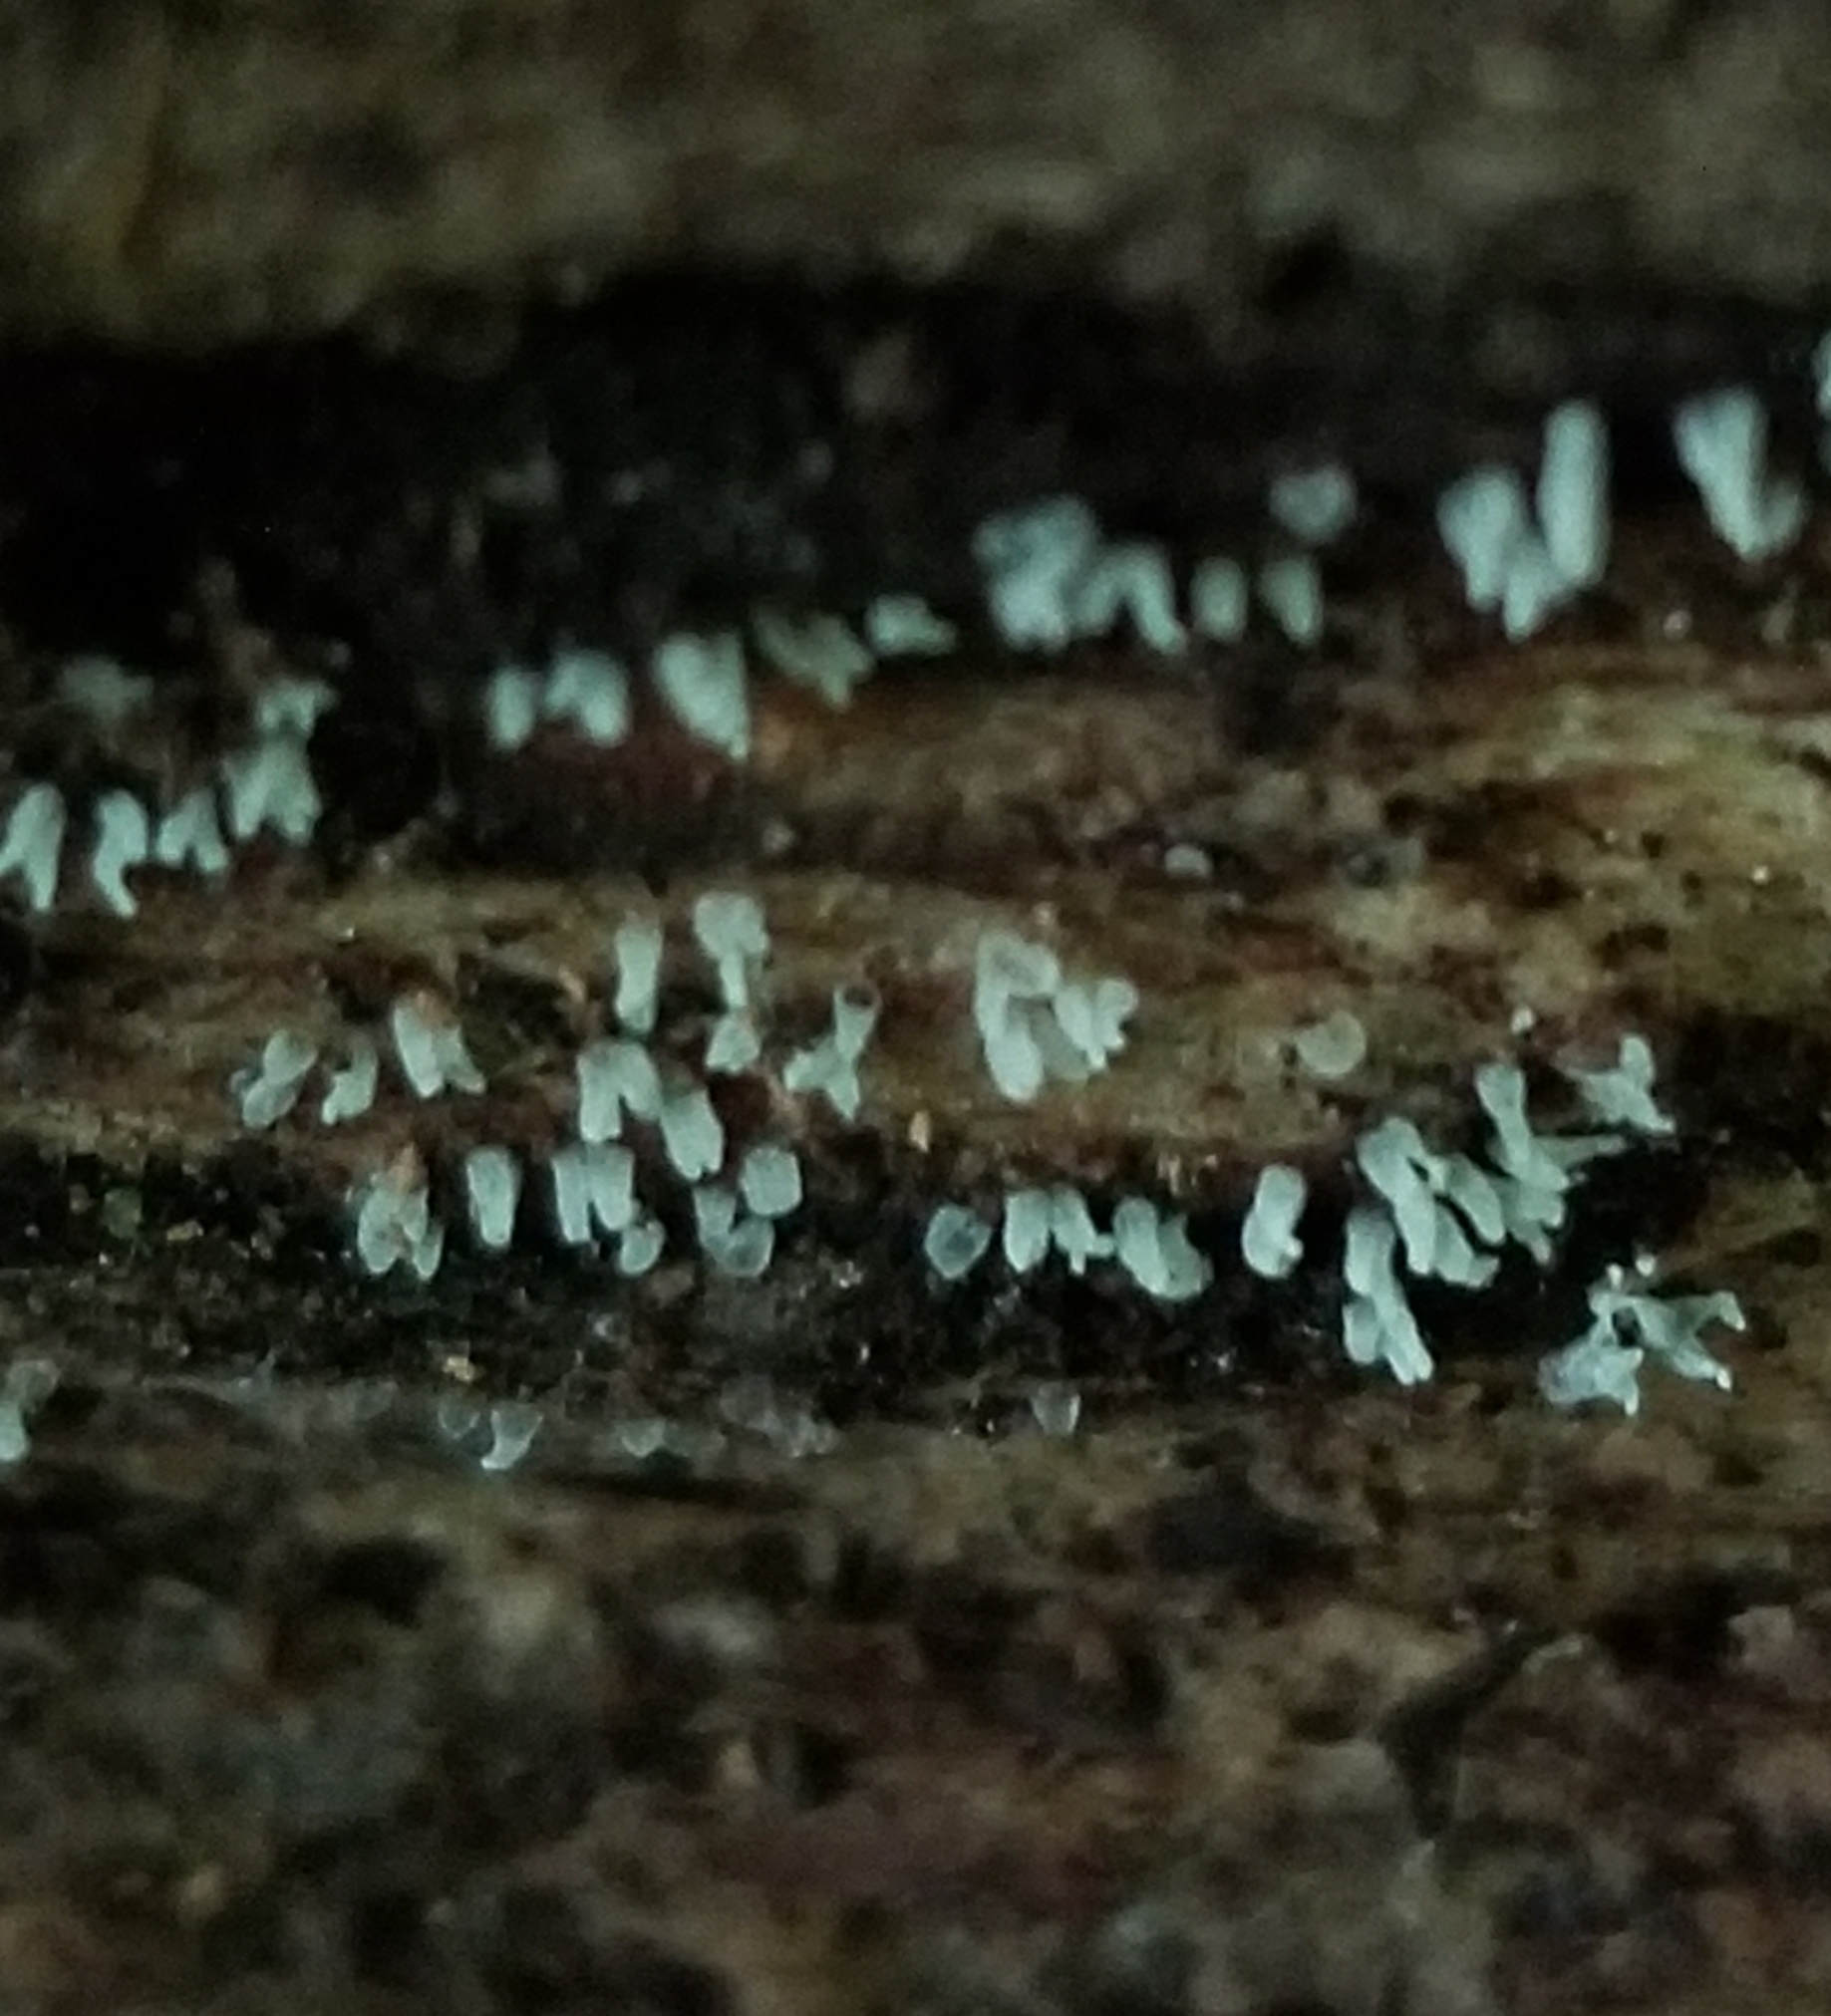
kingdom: Protozoa
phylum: Mycetozoa
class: Myxomycetes
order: Trichiales
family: Arcyriaceae
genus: Arcyria
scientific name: Arcyria cinerea
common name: White carnival candy slime mold
